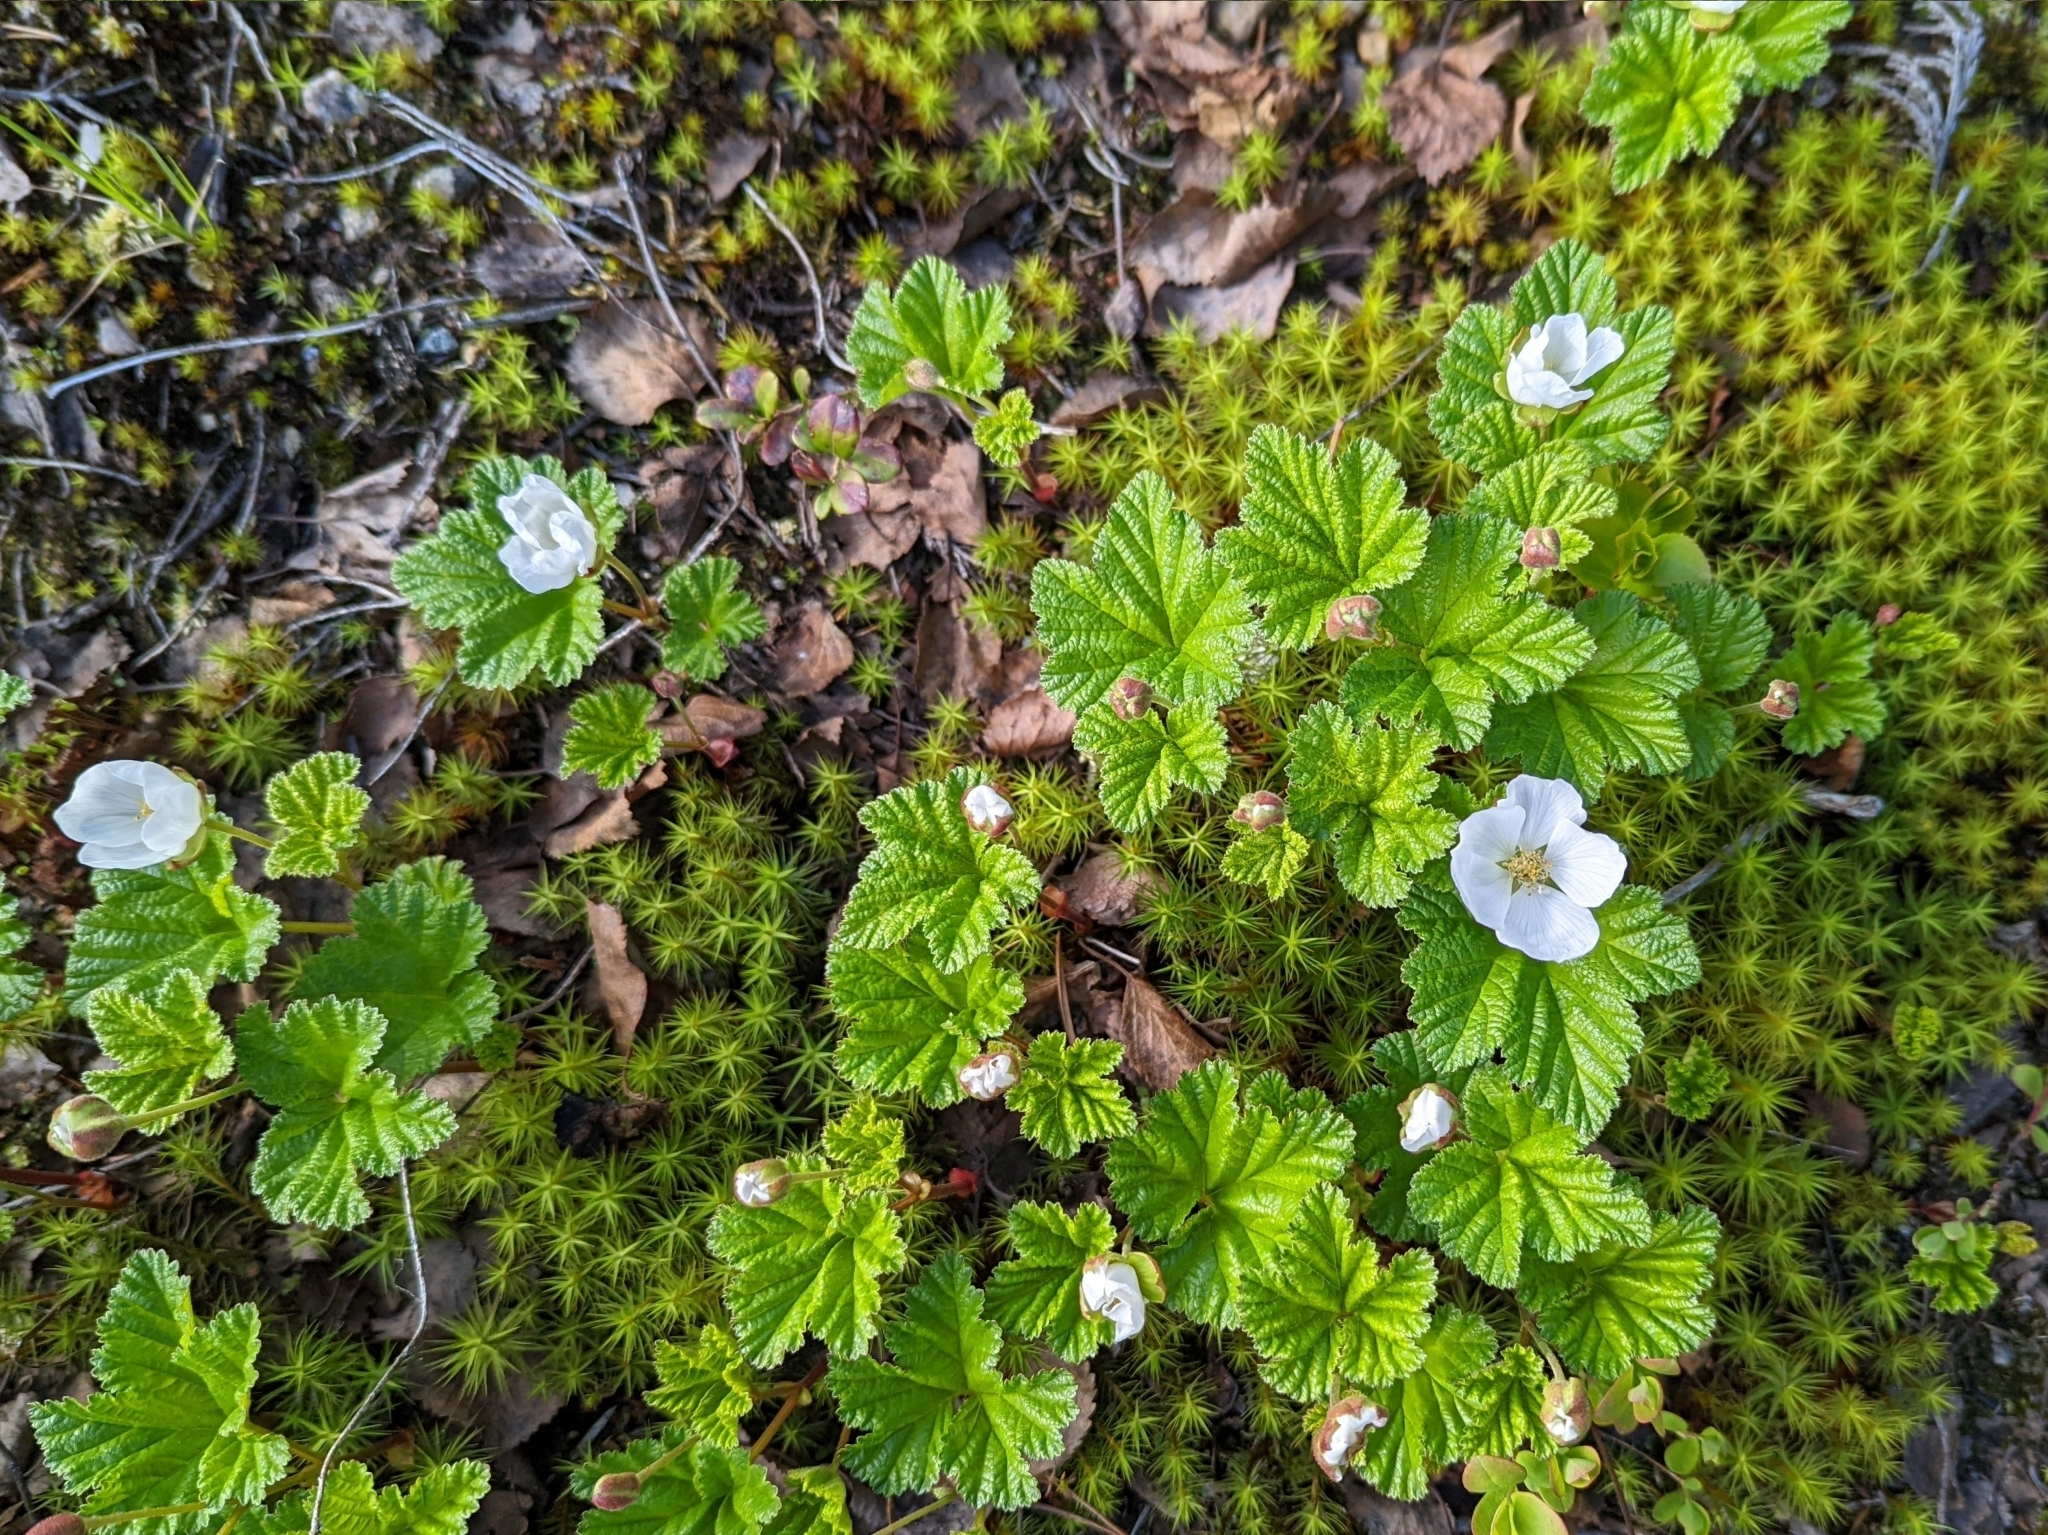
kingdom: Plantae
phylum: Tracheophyta
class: Magnoliopsida
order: Rosales
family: Rosaceae
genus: Rubus
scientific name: Rubus chamaemorus
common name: Cloudberry
